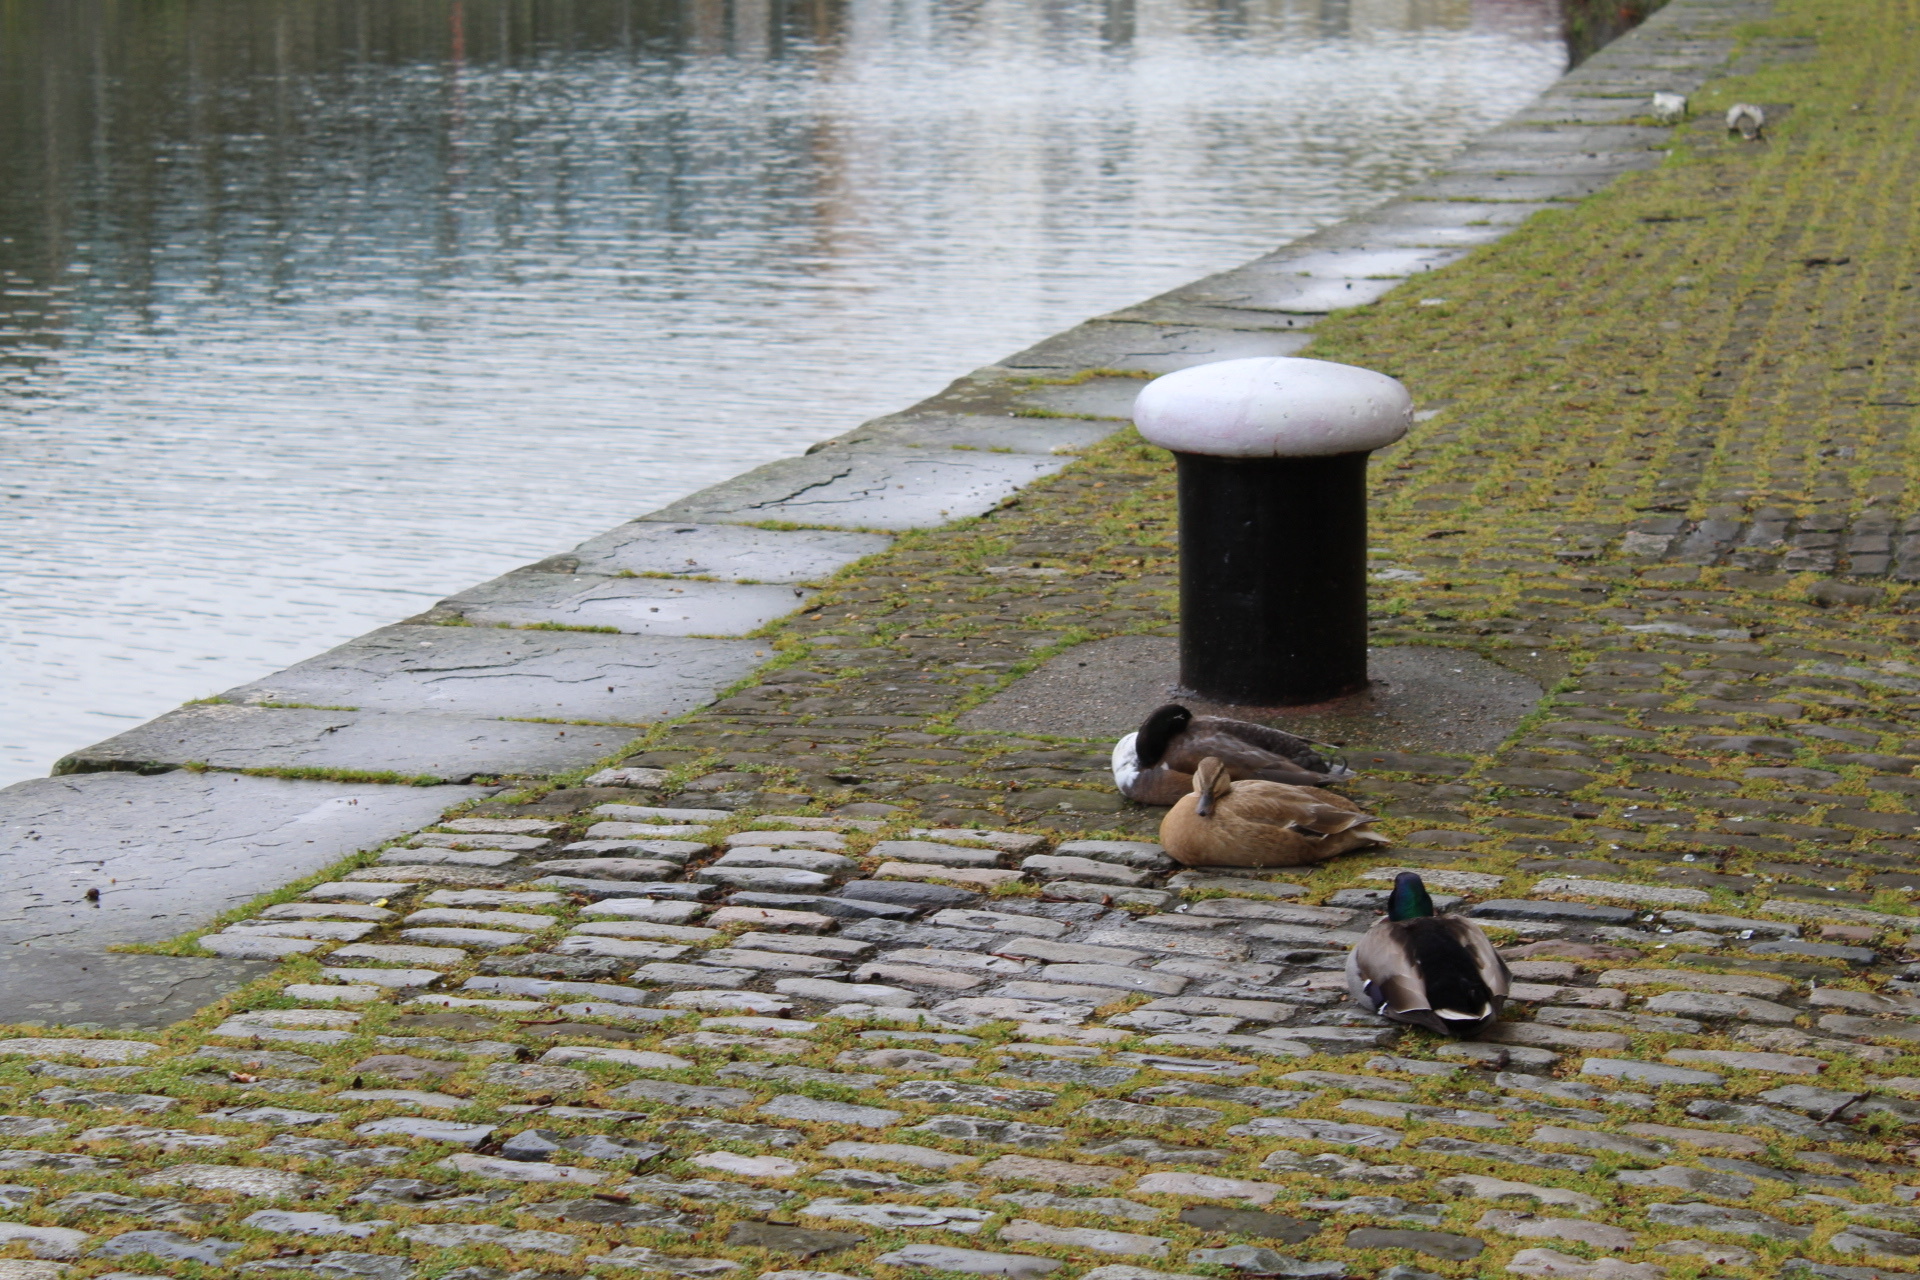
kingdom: Animalia
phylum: Chordata
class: Aves
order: Anseriformes
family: Anatidae
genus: Anas
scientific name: Anas platyrhynchos
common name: Mallard
